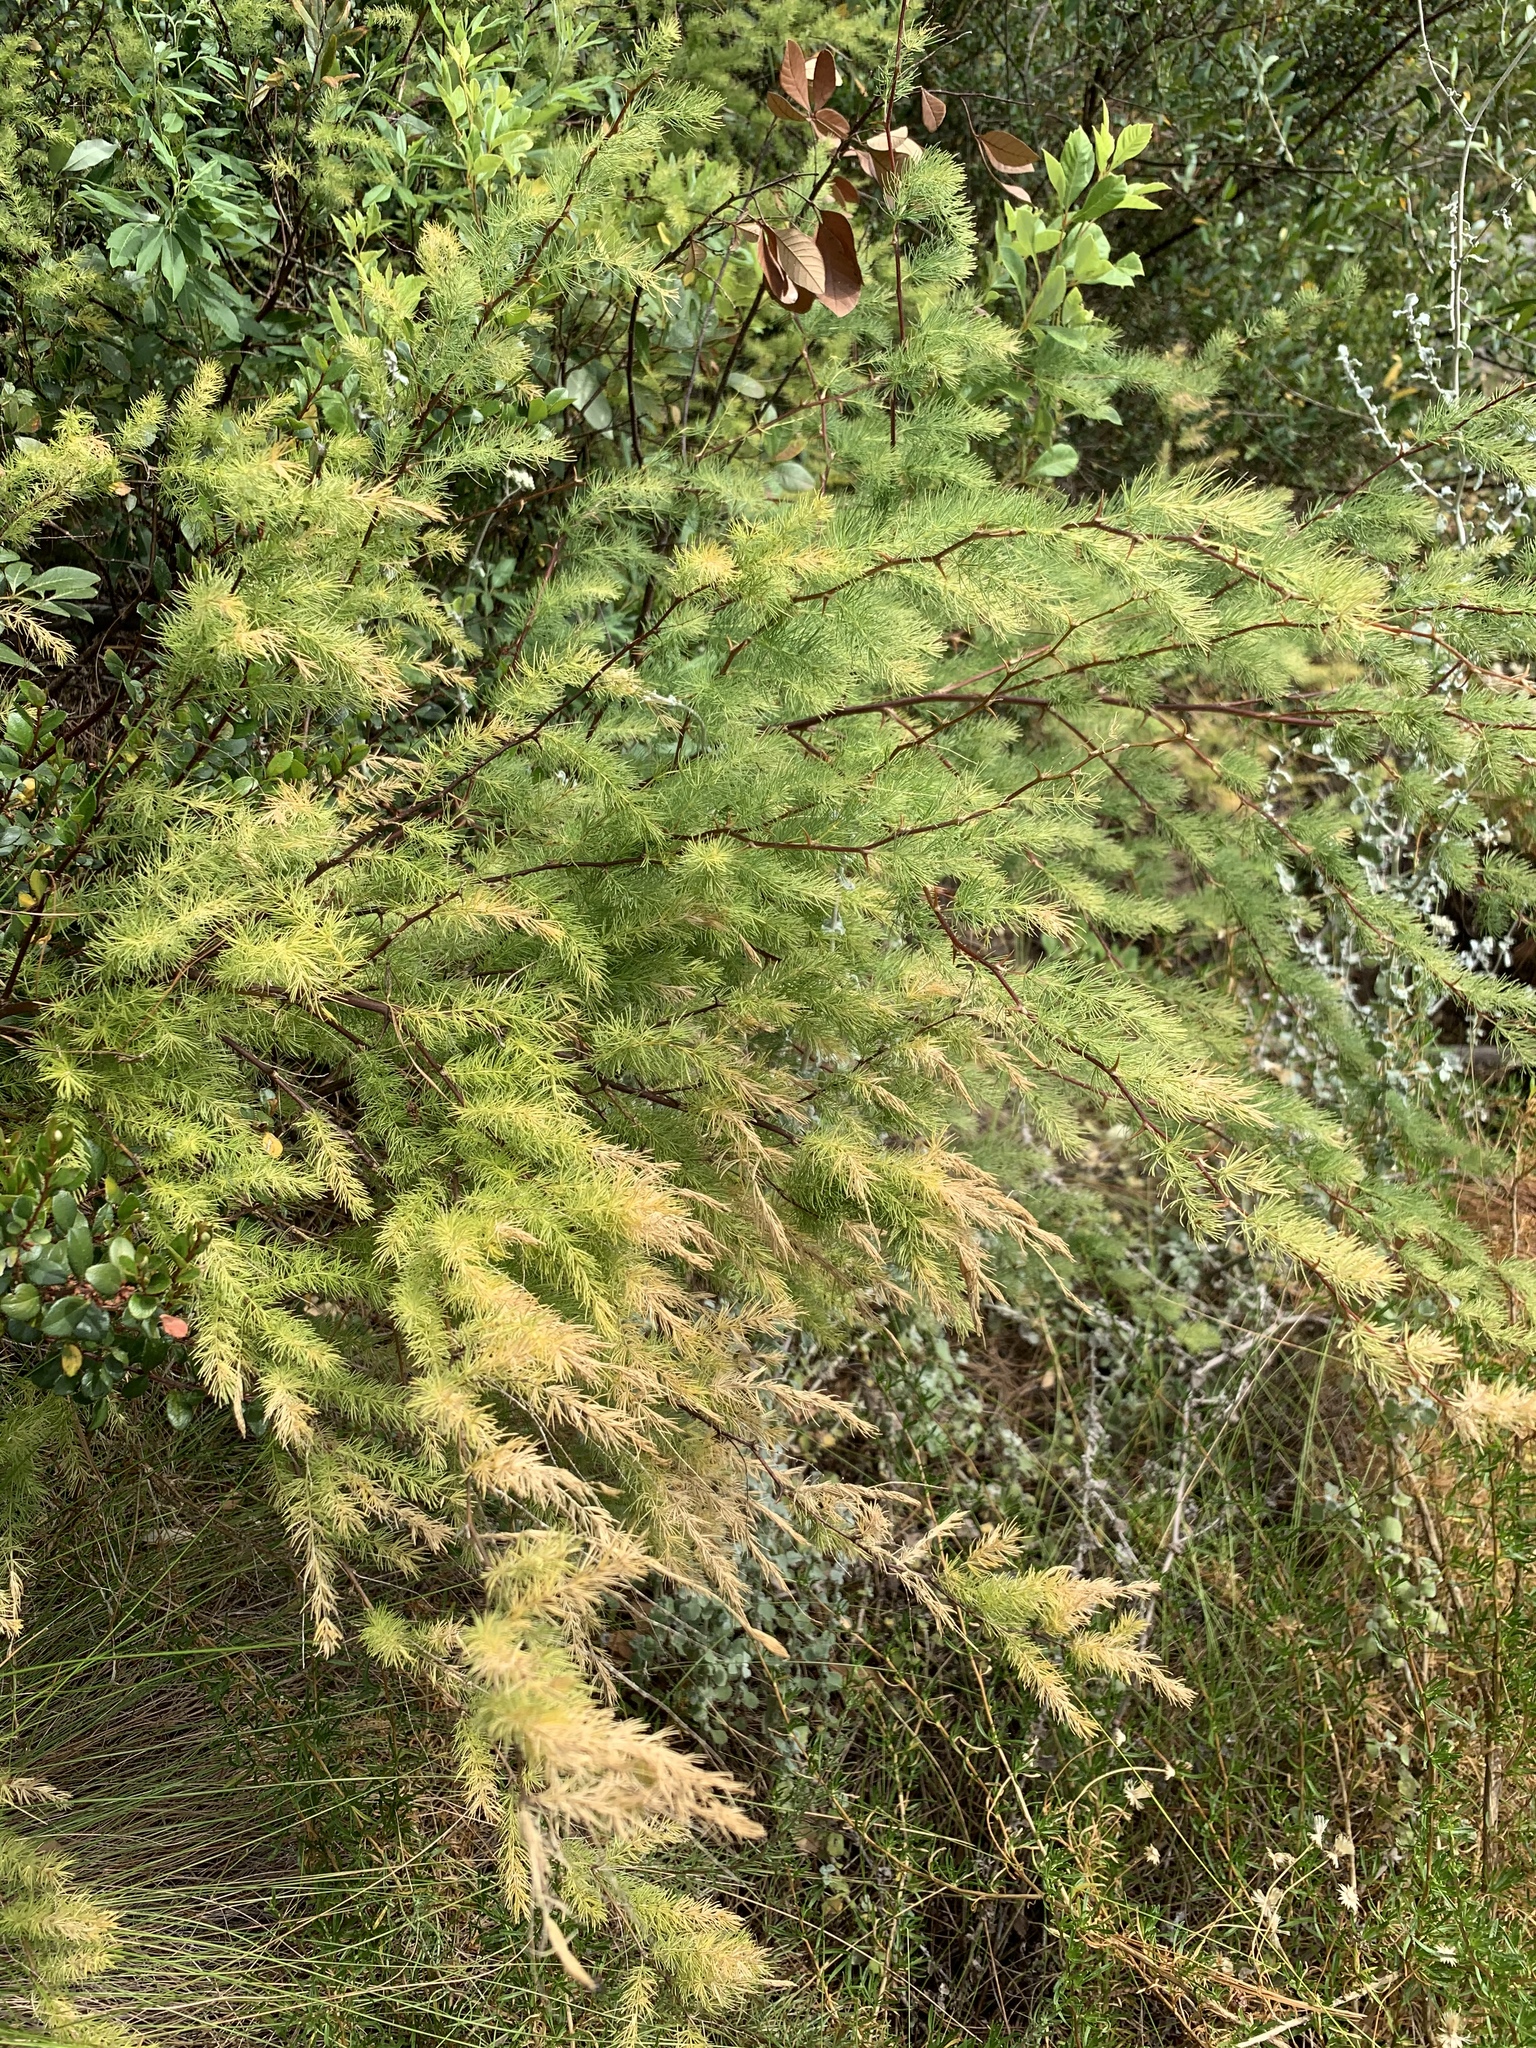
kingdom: Plantae
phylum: Tracheophyta
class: Liliopsida
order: Asparagales
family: Asparagaceae
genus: Asparagus
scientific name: Asparagus rubicundus
